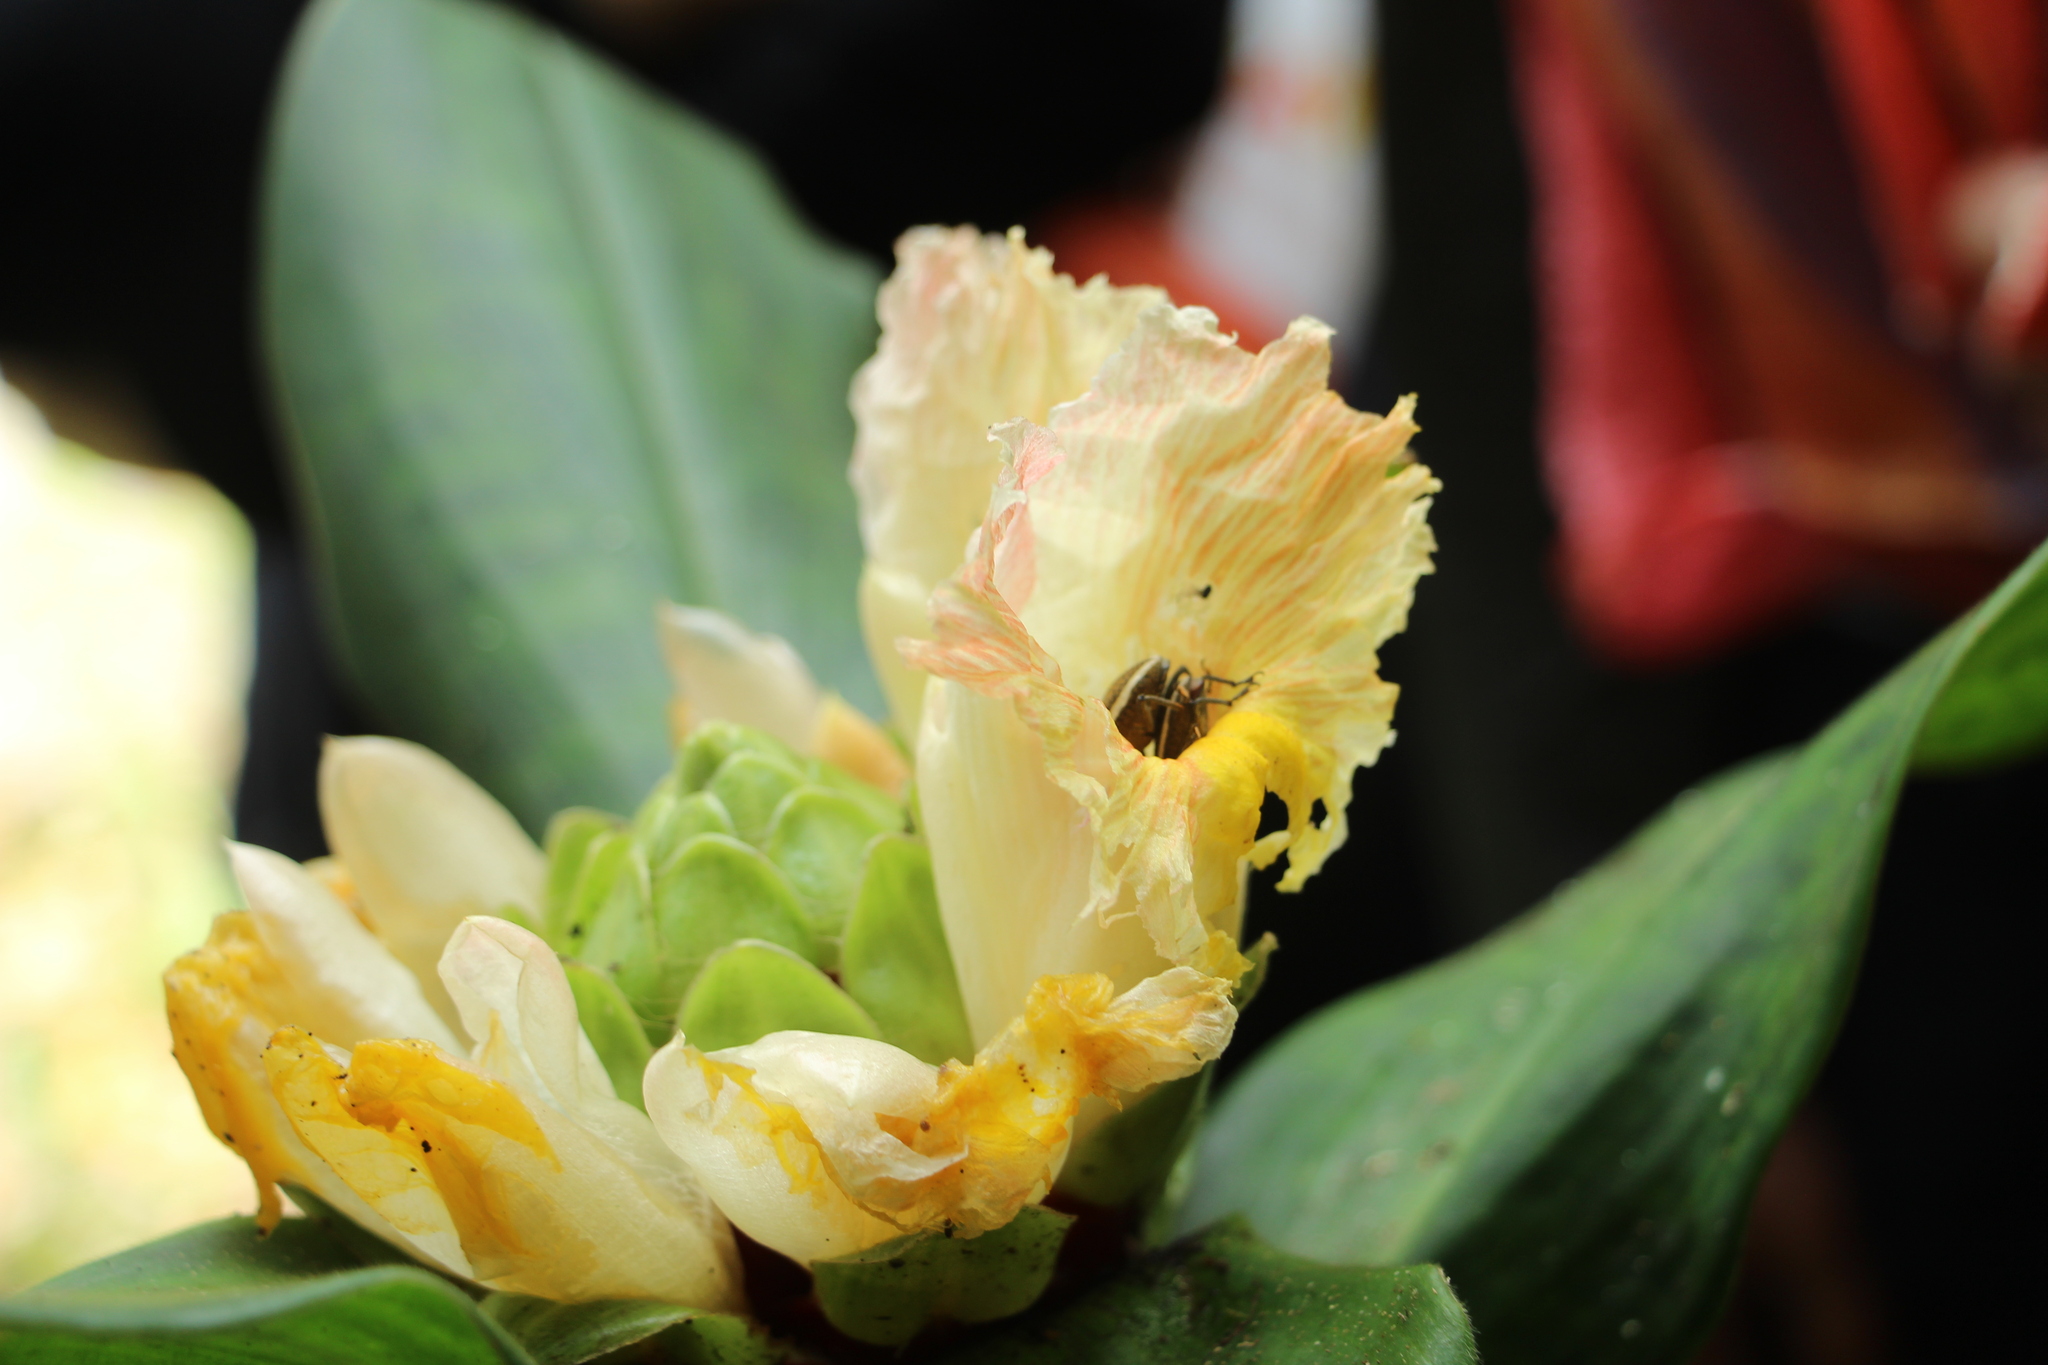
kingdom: Plantae
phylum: Tracheophyta
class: Liliopsida
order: Zingiberales
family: Costaceae
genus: Costus
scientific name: Costus erythrophyllus
